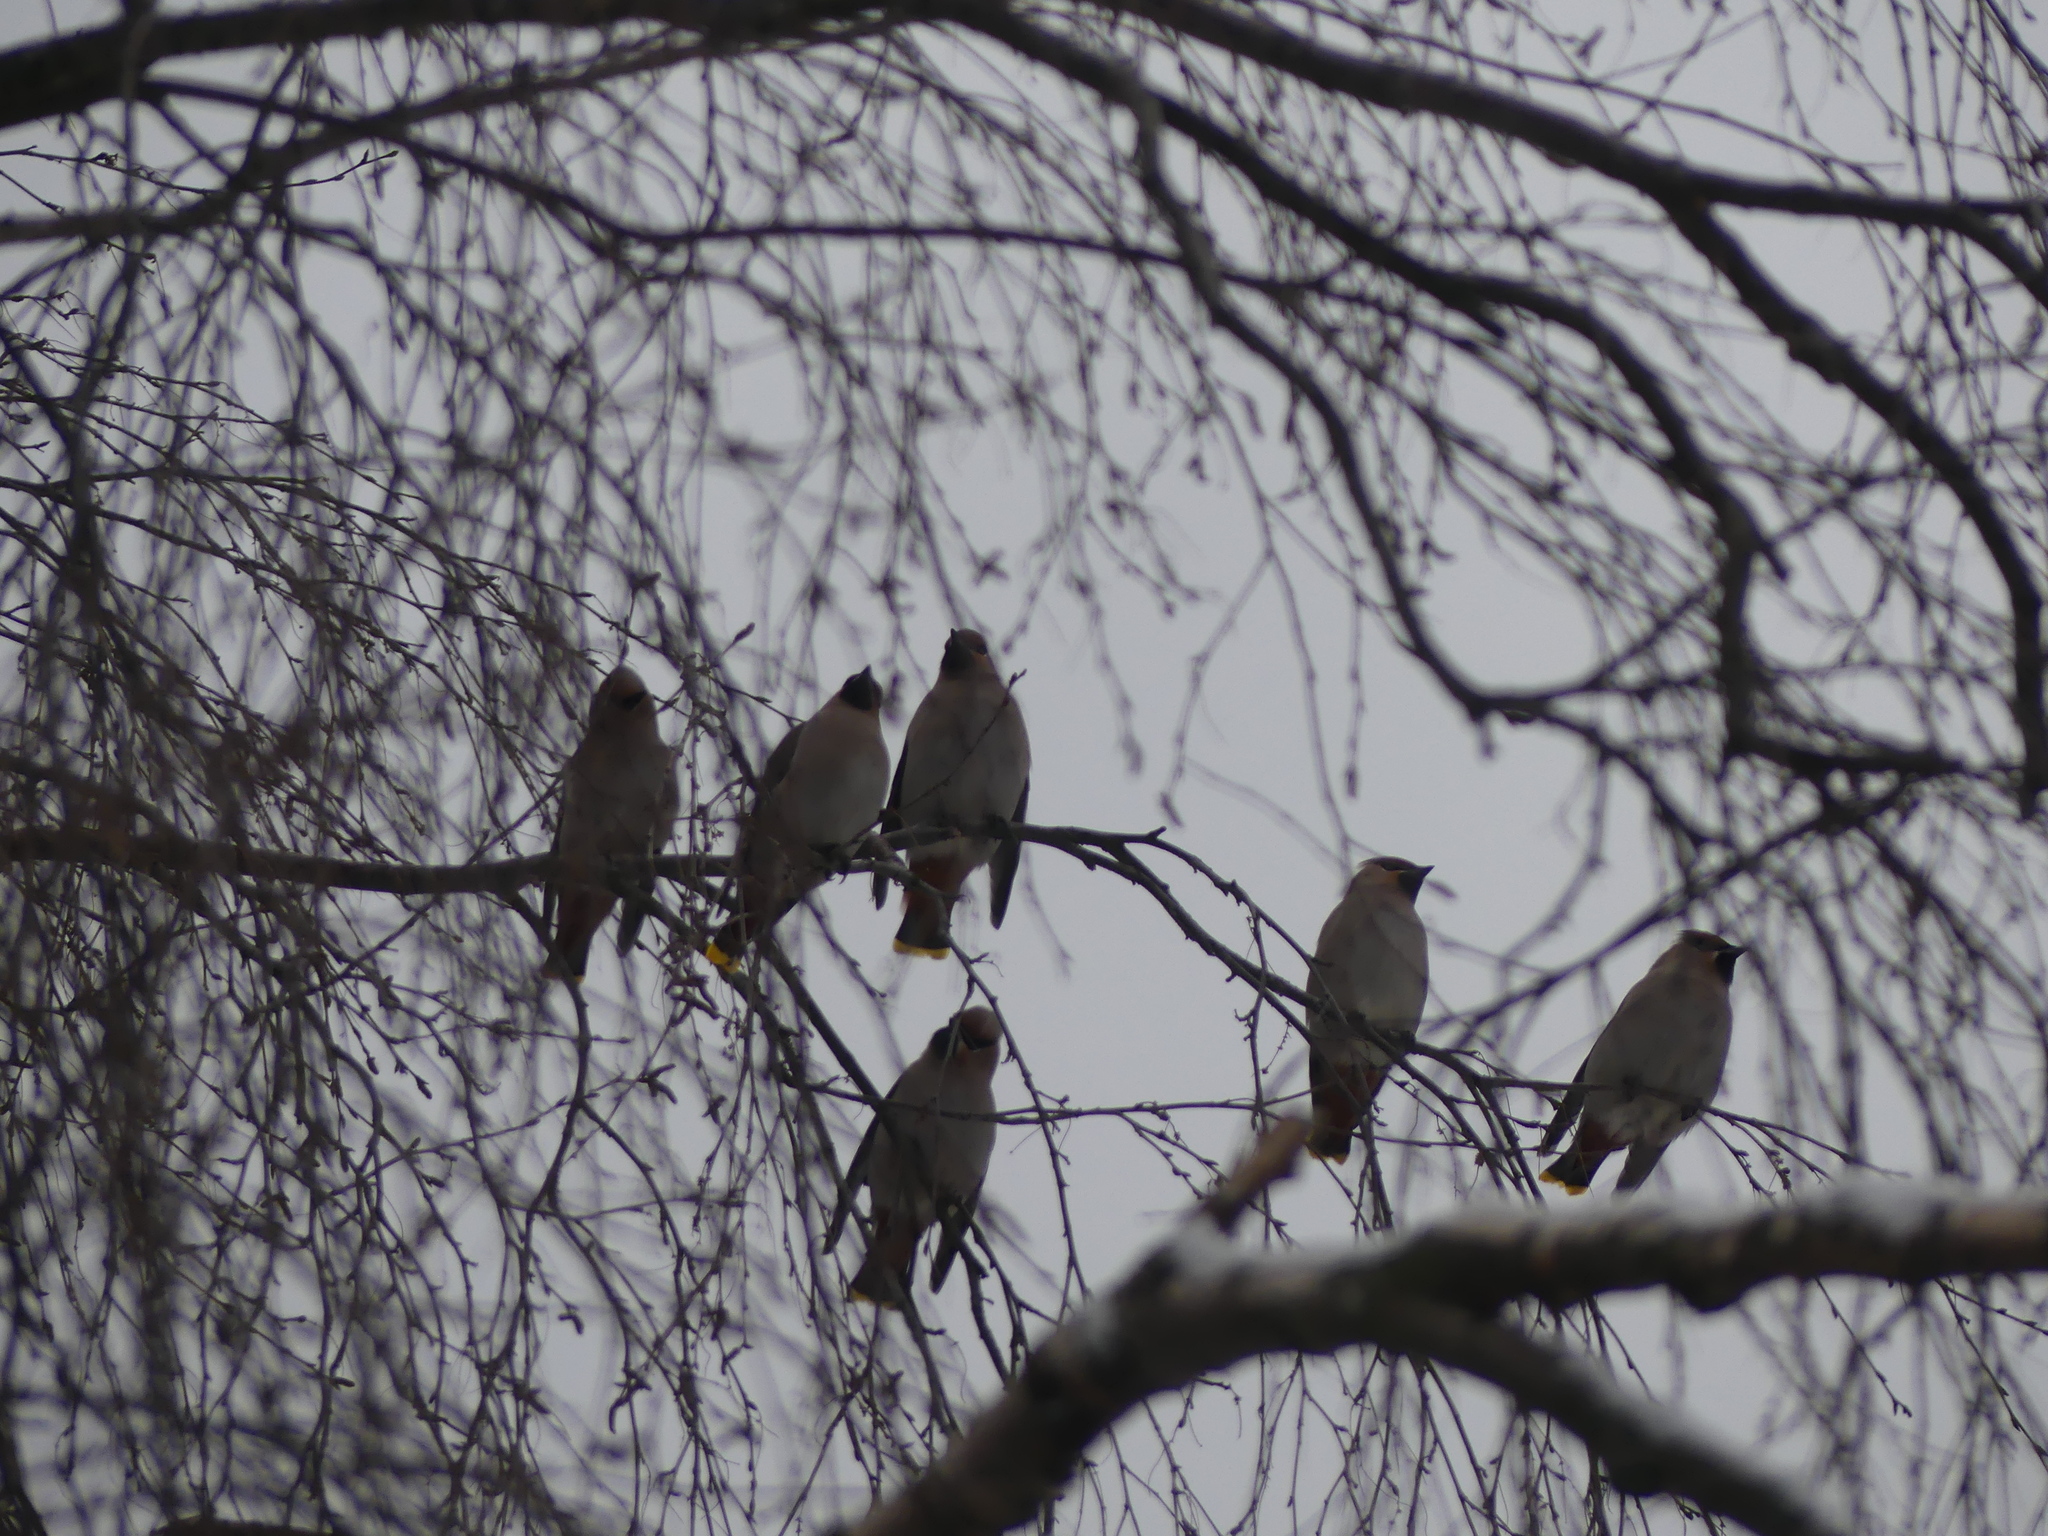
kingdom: Animalia
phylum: Chordata
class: Aves
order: Passeriformes
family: Bombycillidae
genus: Bombycilla
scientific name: Bombycilla garrulus
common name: Bohemian waxwing
